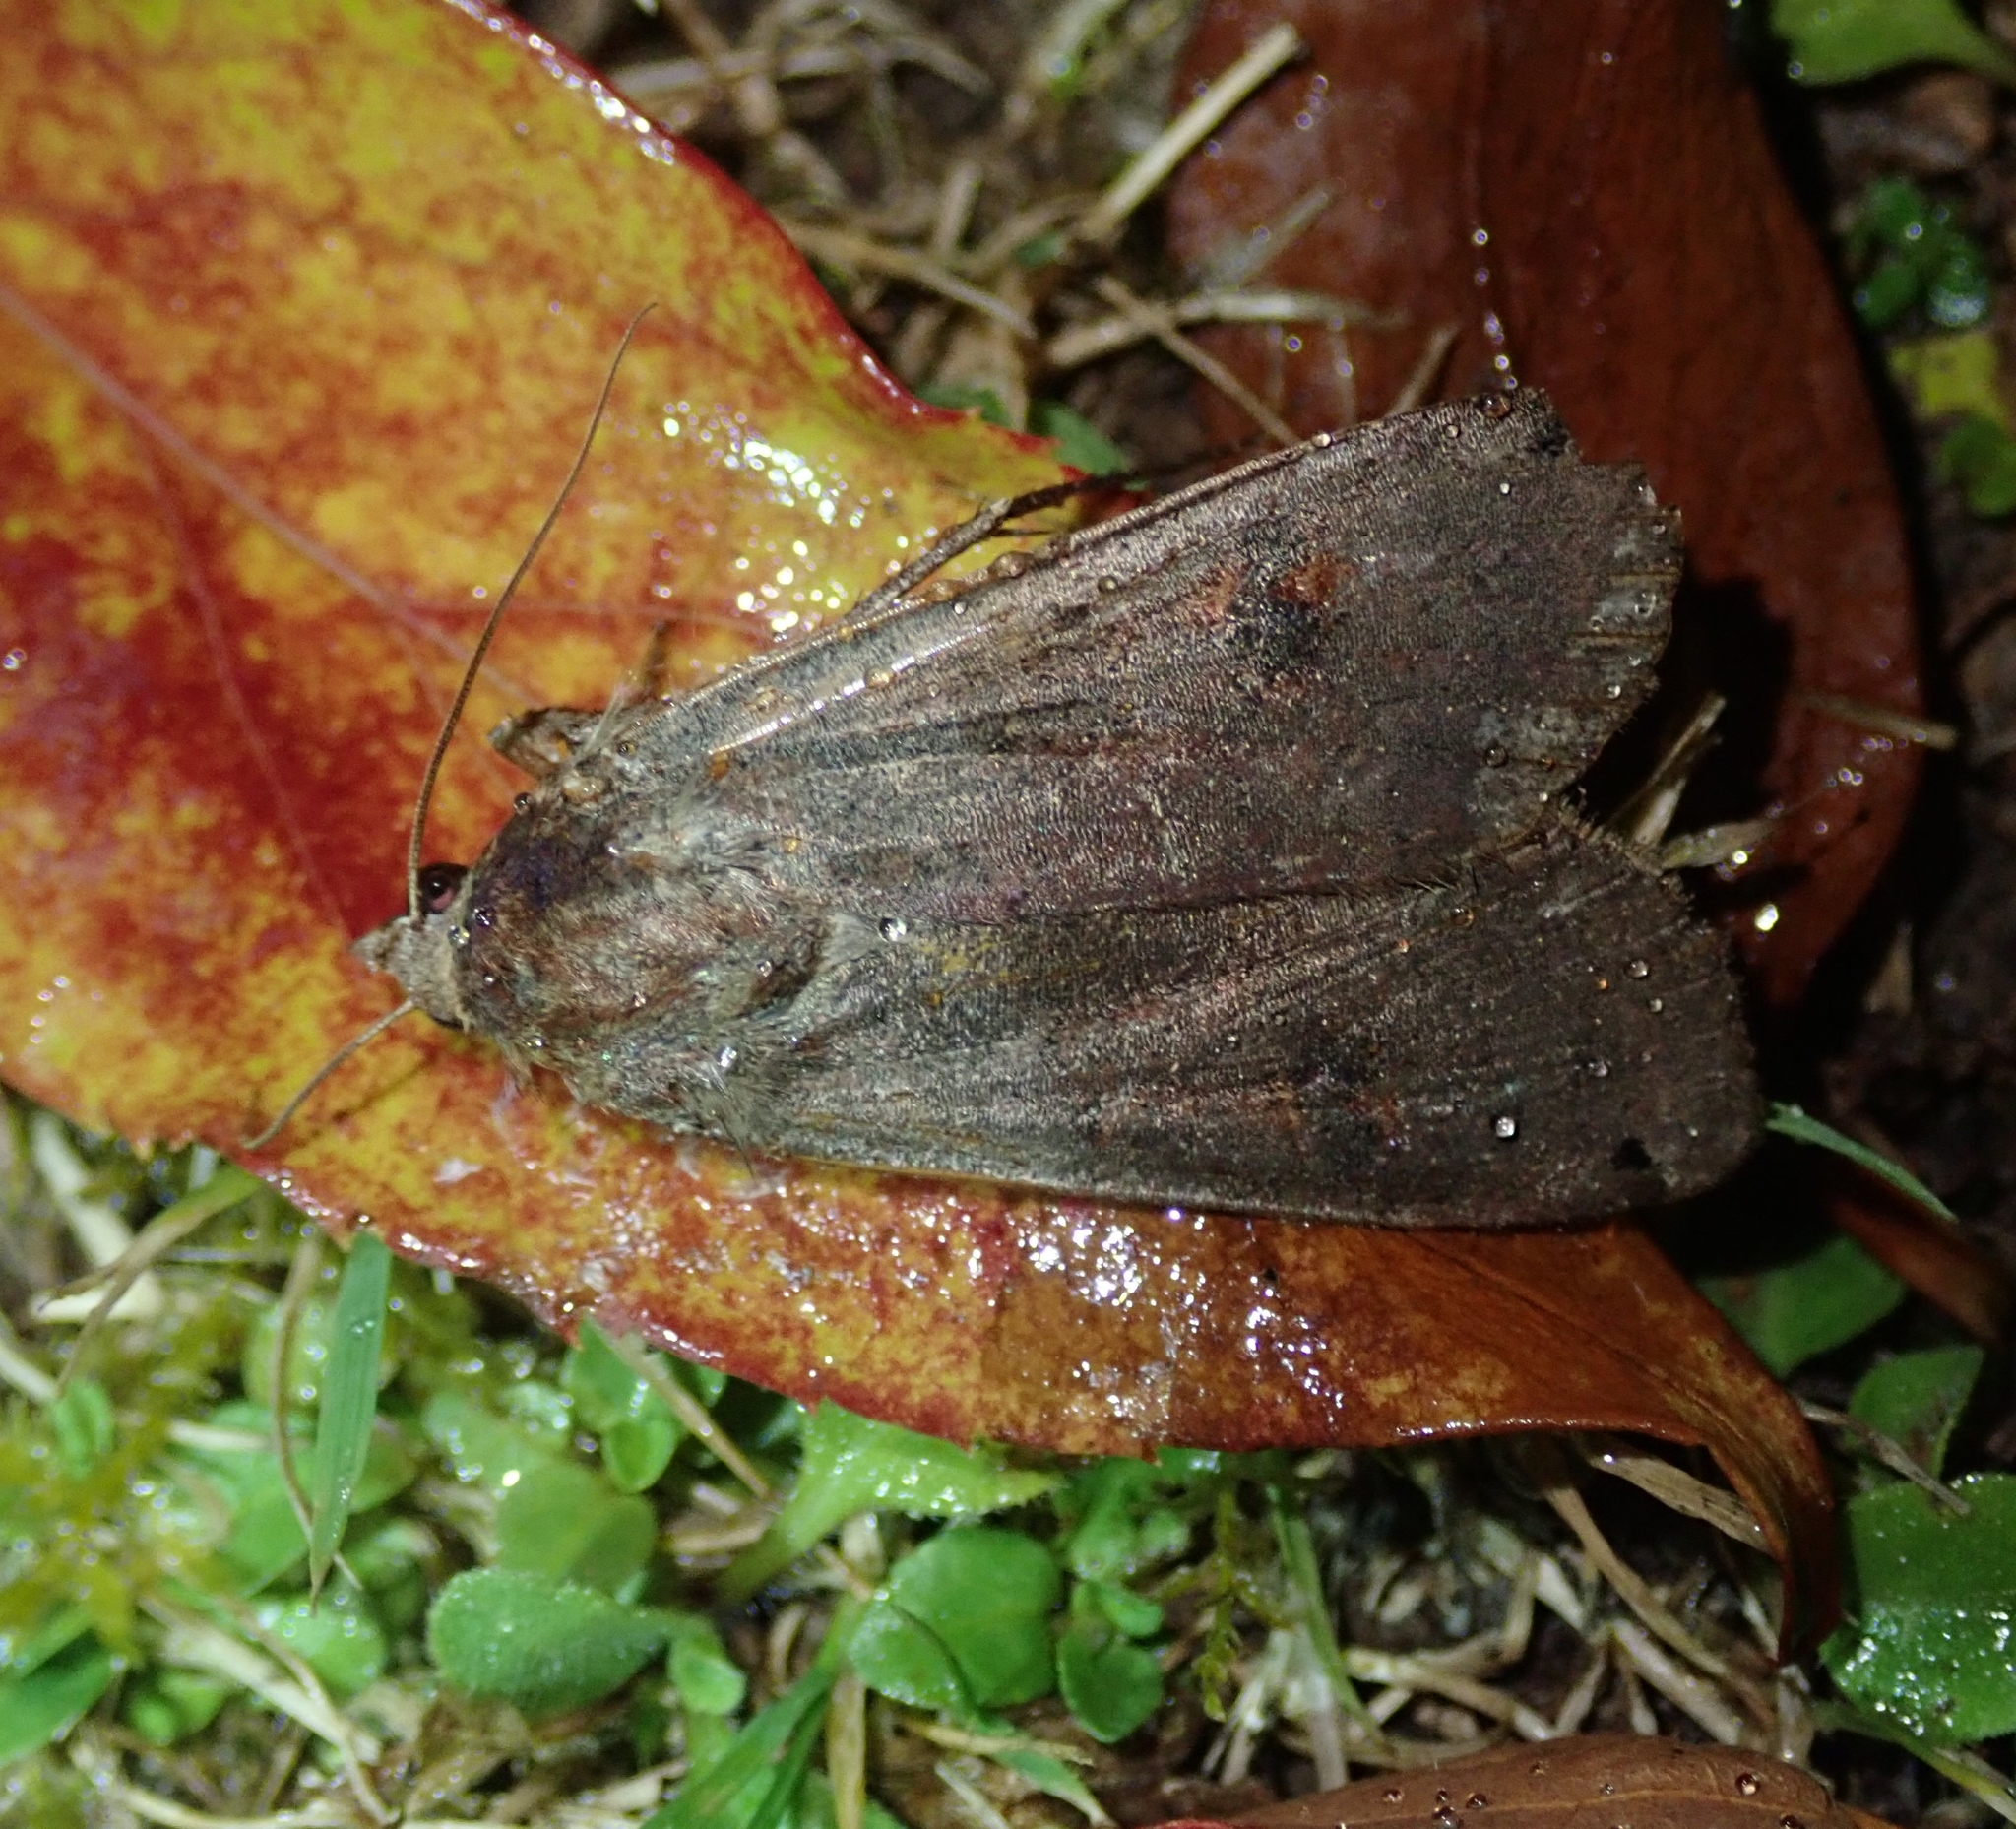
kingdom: Animalia
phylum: Arthropoda
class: Insecta
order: Lepidoptera
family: Noctuidae
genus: Noctua
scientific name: Noctua pronuba
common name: Large yellow underwing
